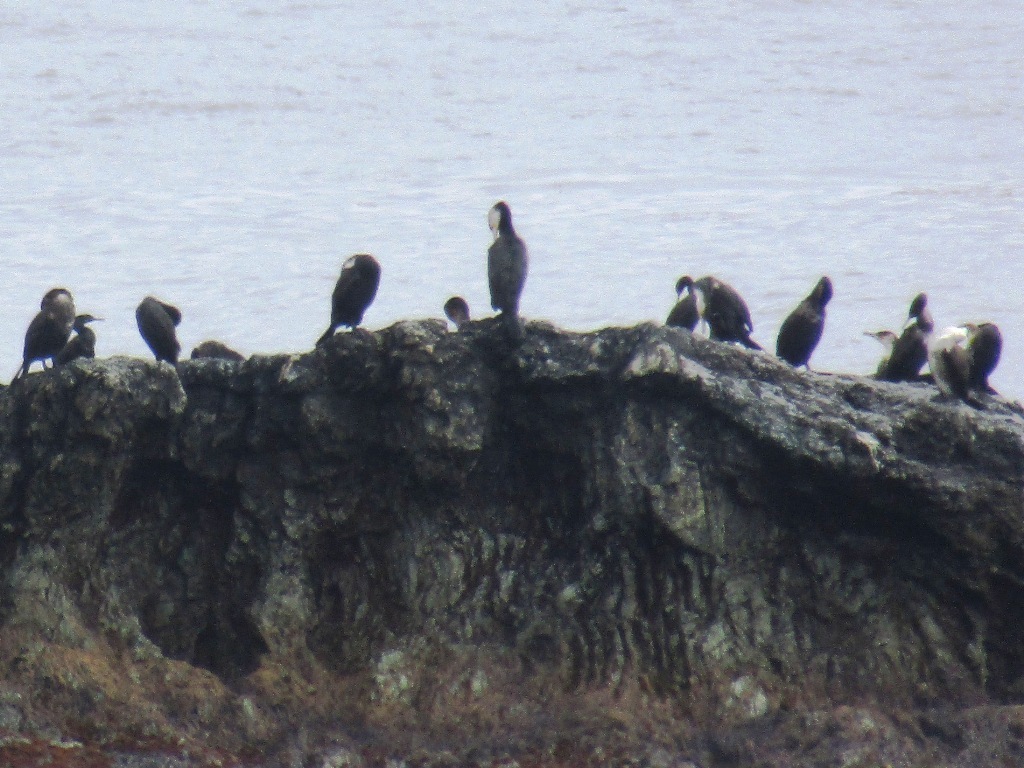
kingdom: Animalia
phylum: Chordata
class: Aves
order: Suliformes
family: Phalacrocoracidae
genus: Phalacrocorax
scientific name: Phalacrocorax capillatus
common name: Japanese cormorant
